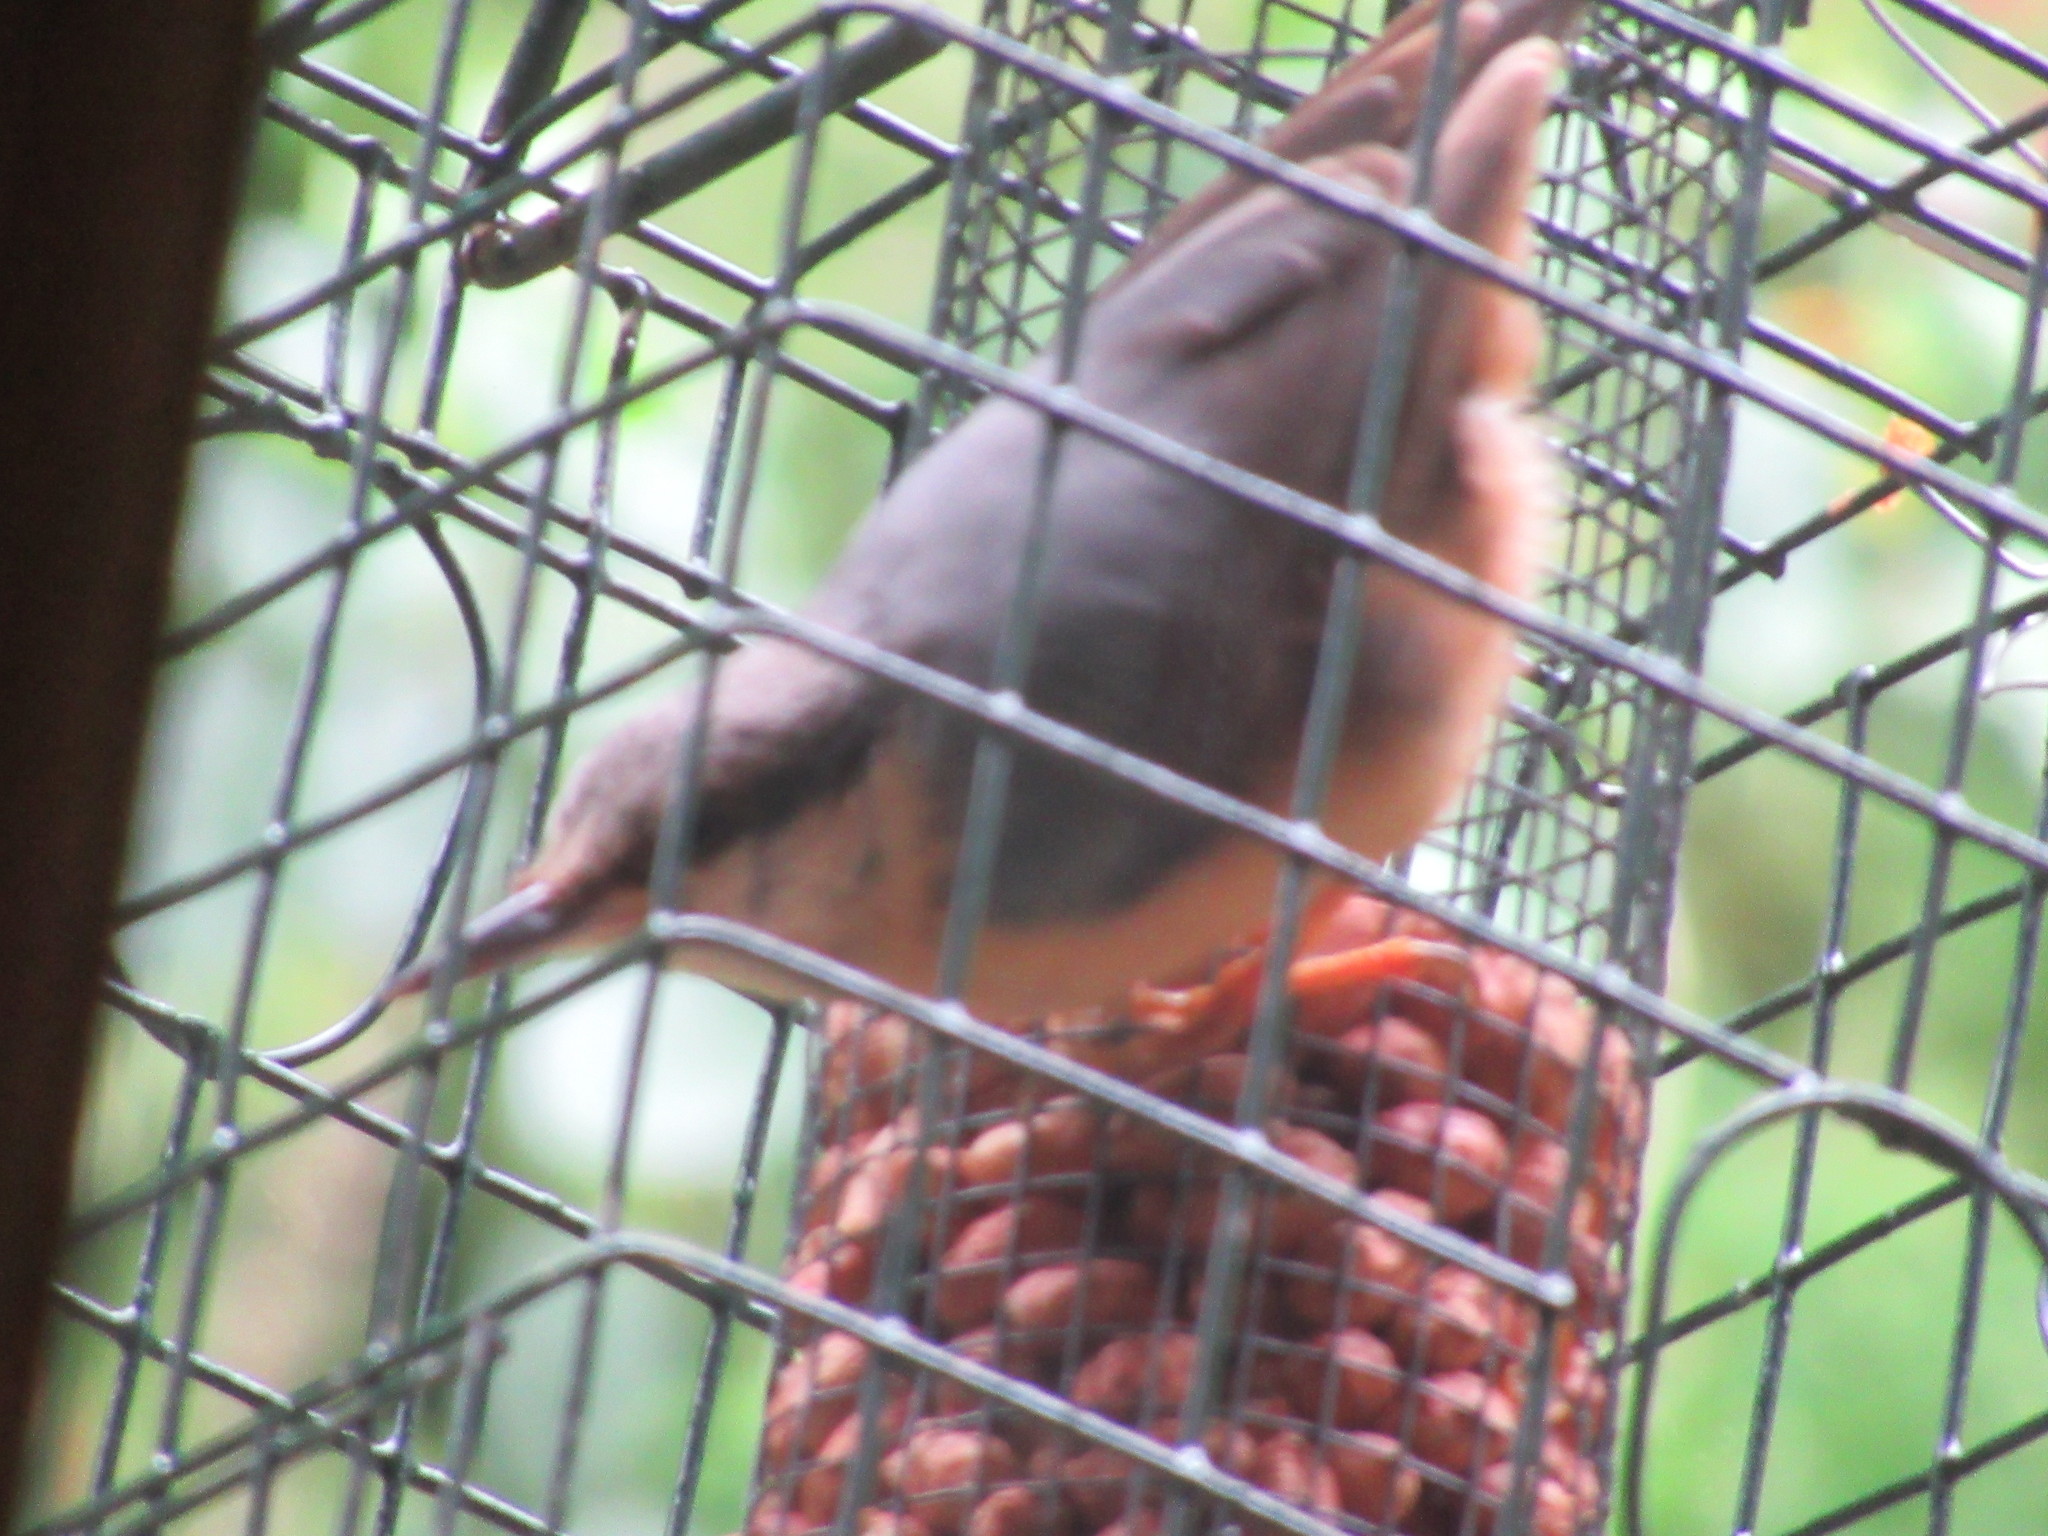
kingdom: Animalia
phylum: Chordata
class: Aves
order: Passeriformes
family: Sittidae
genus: Sitta
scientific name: Sitta europaea
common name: Eurasian nuthatch
